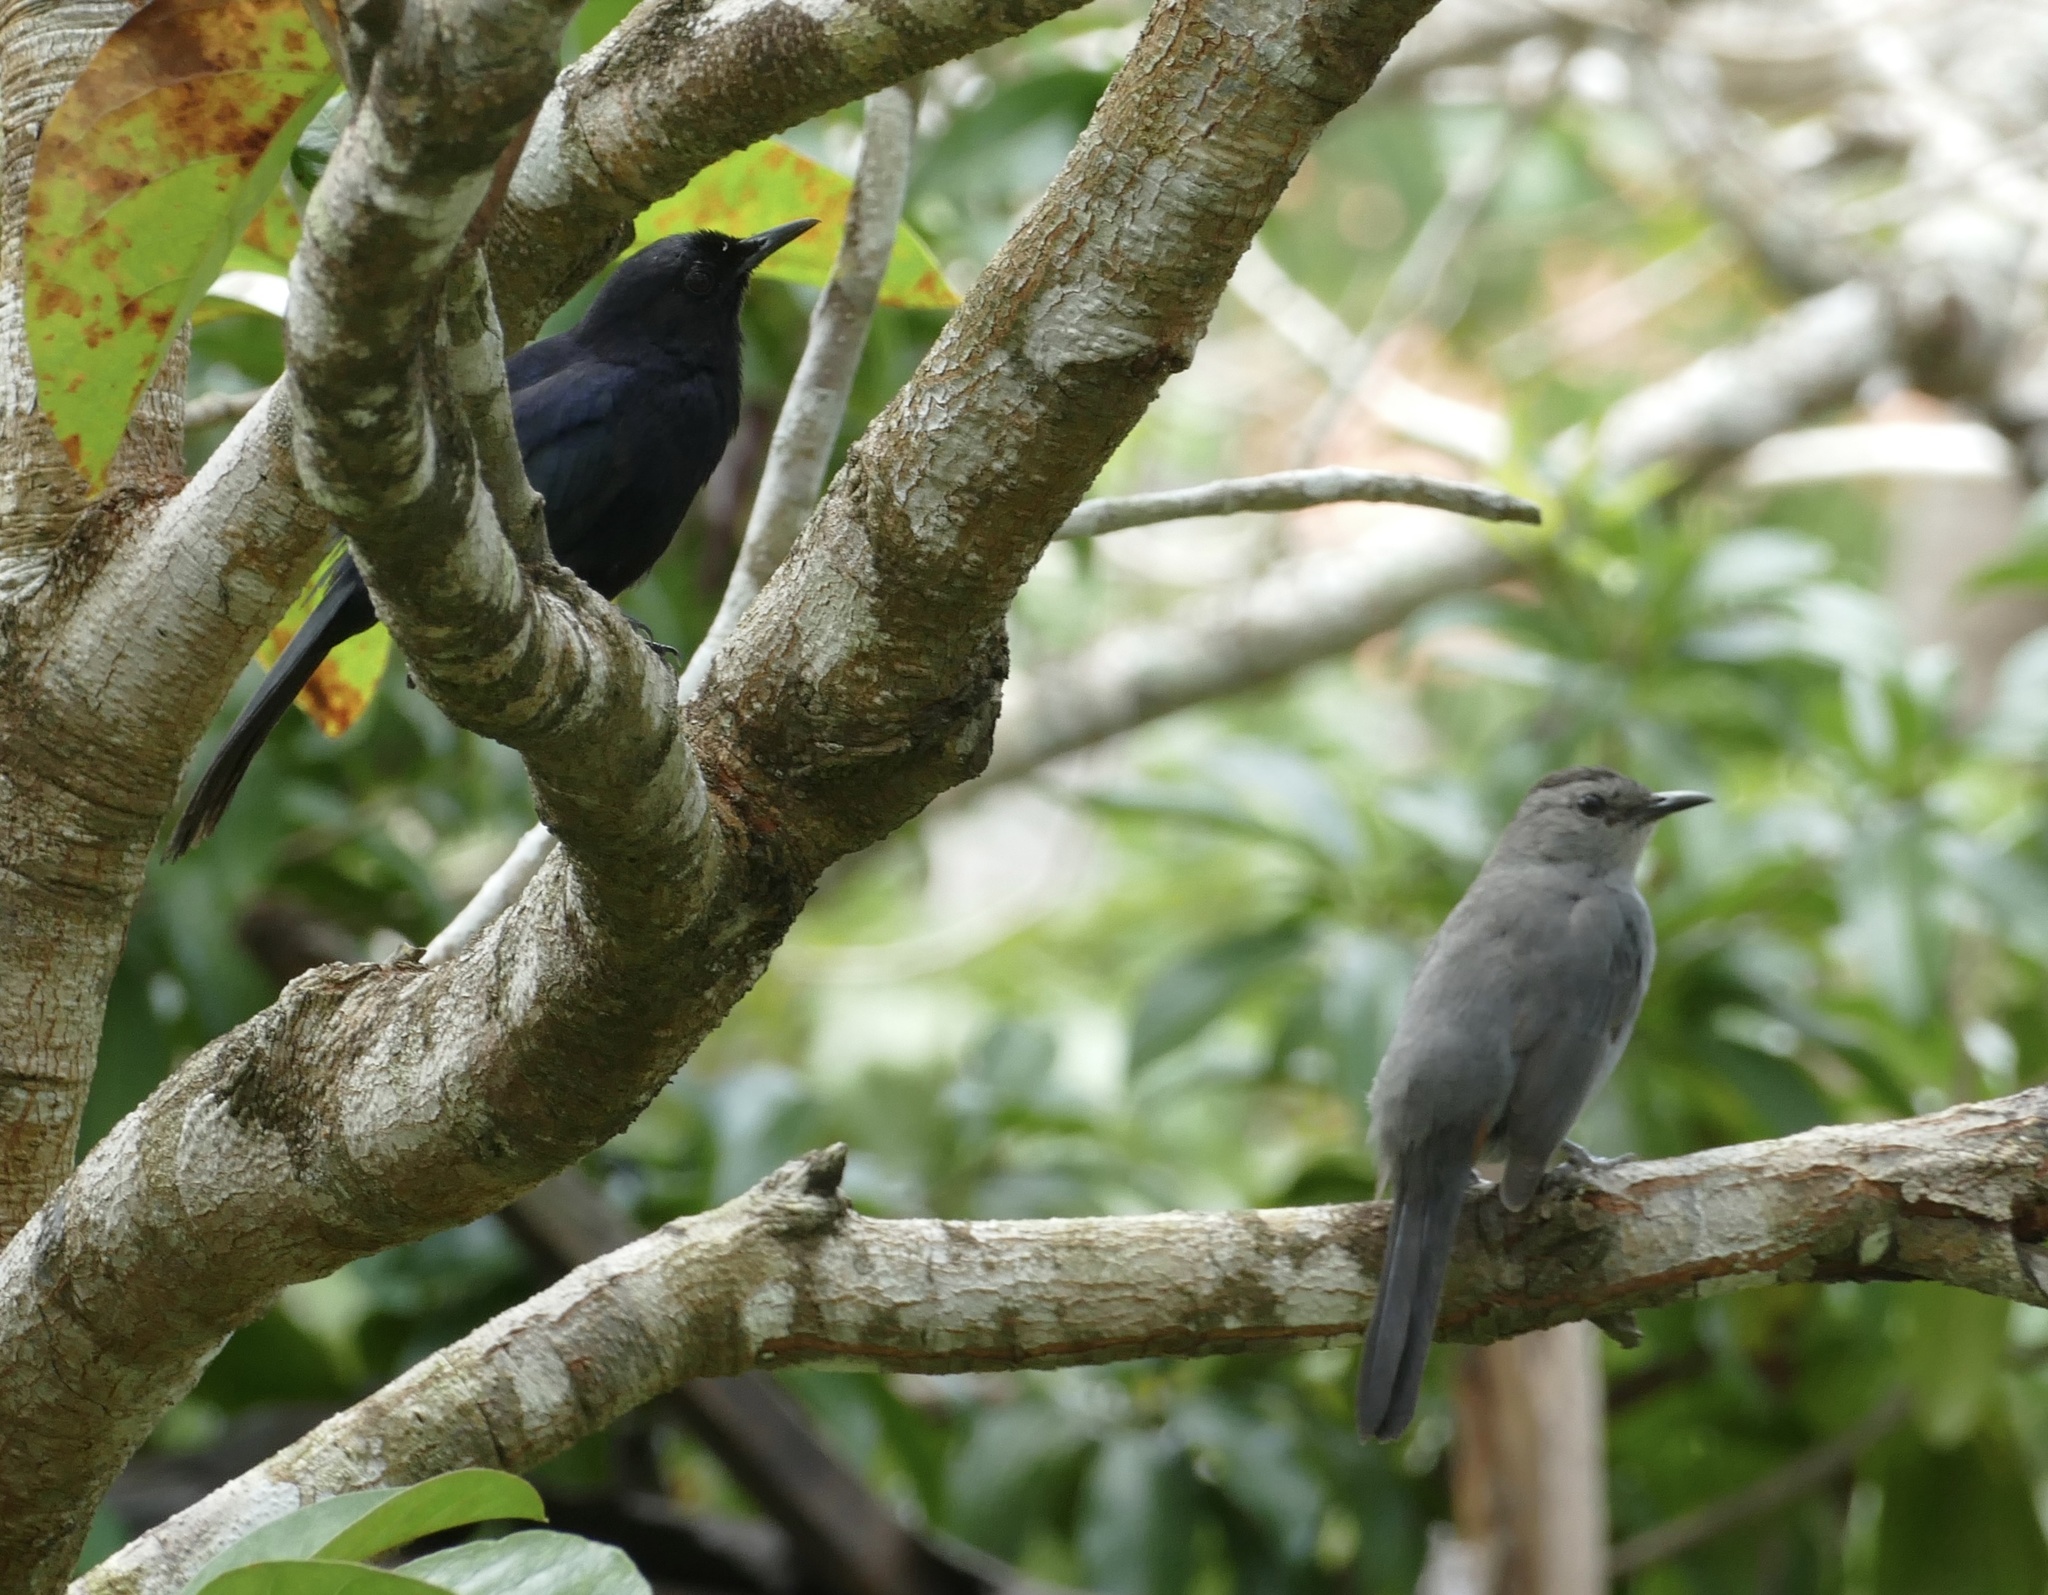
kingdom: Animalia
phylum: Chordata
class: Aves
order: Passeriformes
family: Mimidae
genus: Dumetella
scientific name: Dumetella carolinensis
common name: Gray catbird
